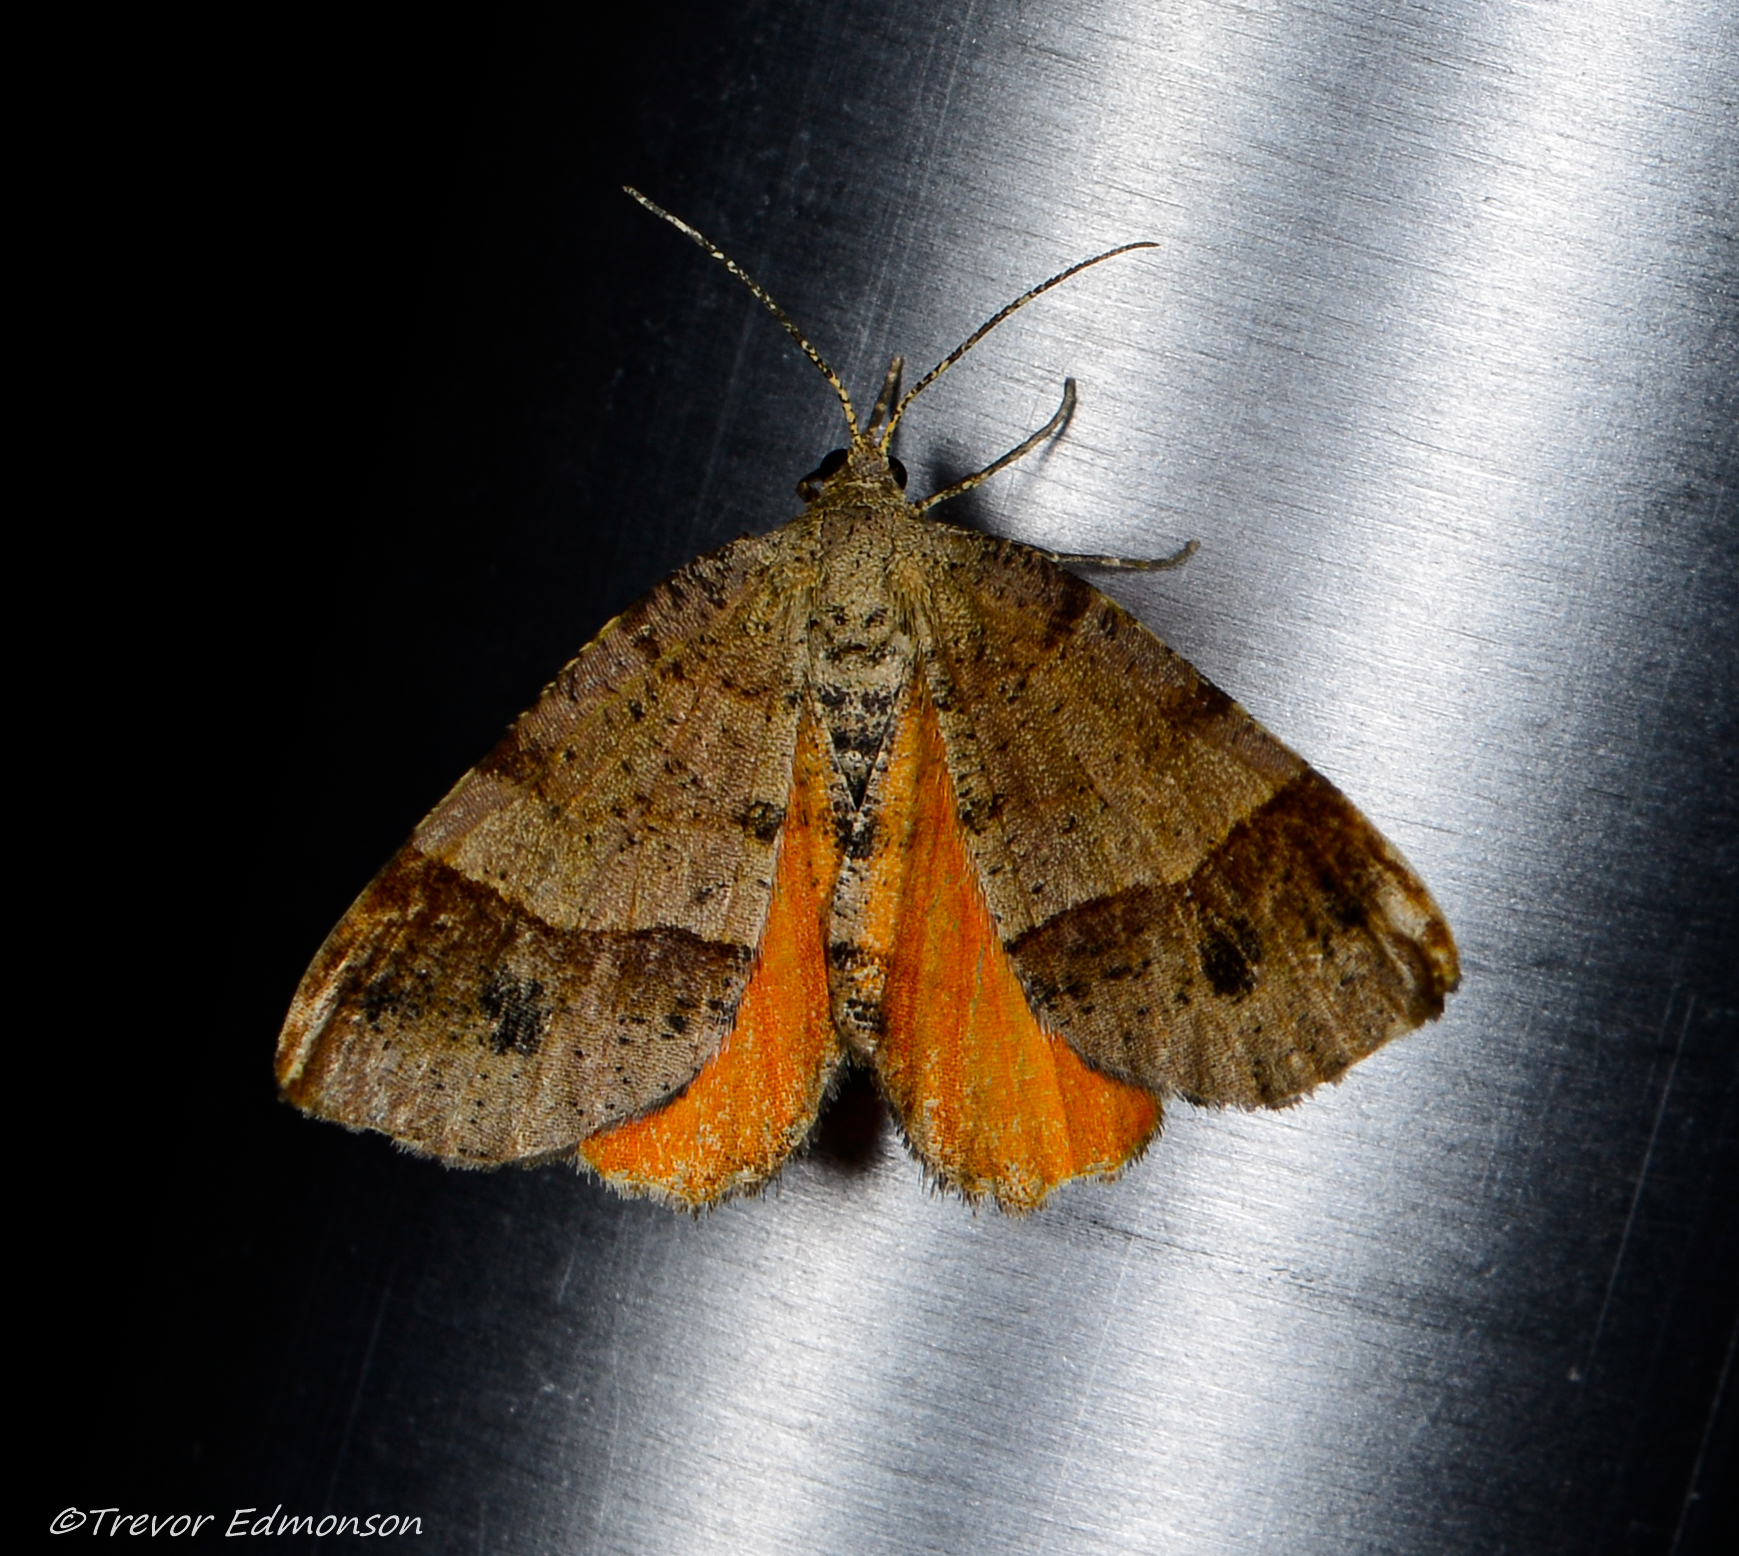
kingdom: Animalia
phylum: Arthropoda
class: Insecta
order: Lepidoptera
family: Geometridae
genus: Mellilla
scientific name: Mellilla xanthometata
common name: Orange wing moth
